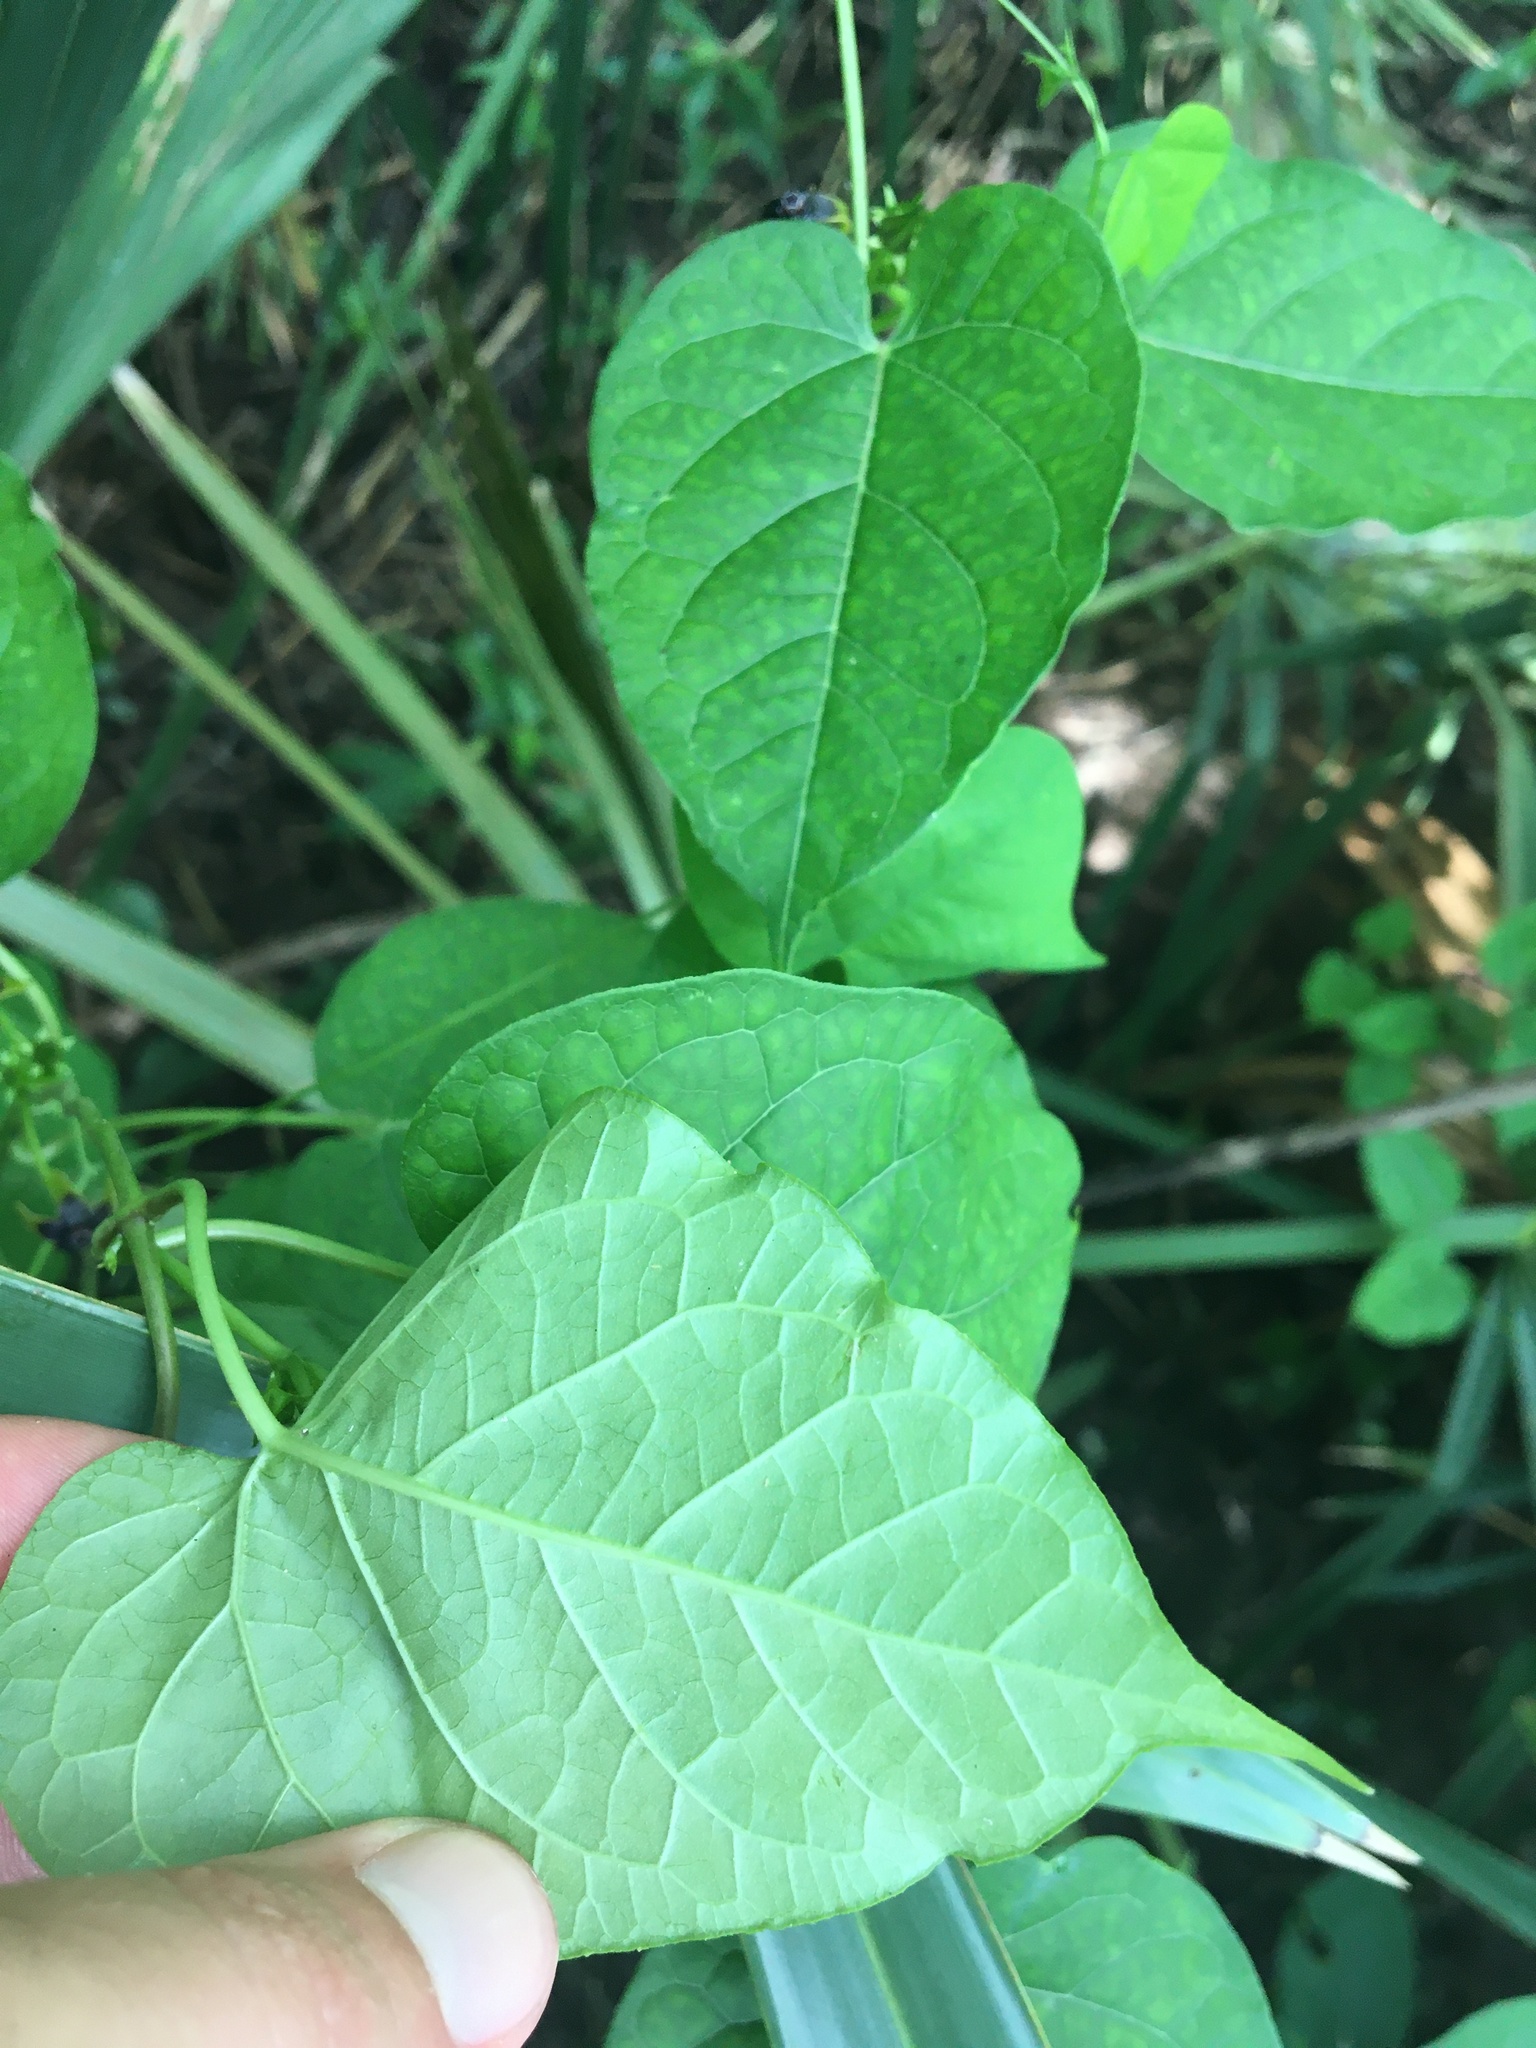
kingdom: Plantae
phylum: Tracheophyta
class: Magnoliopsida
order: Gentianales
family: Apocynaceae
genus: Gonolobus
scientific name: Gonolobus suberosus
